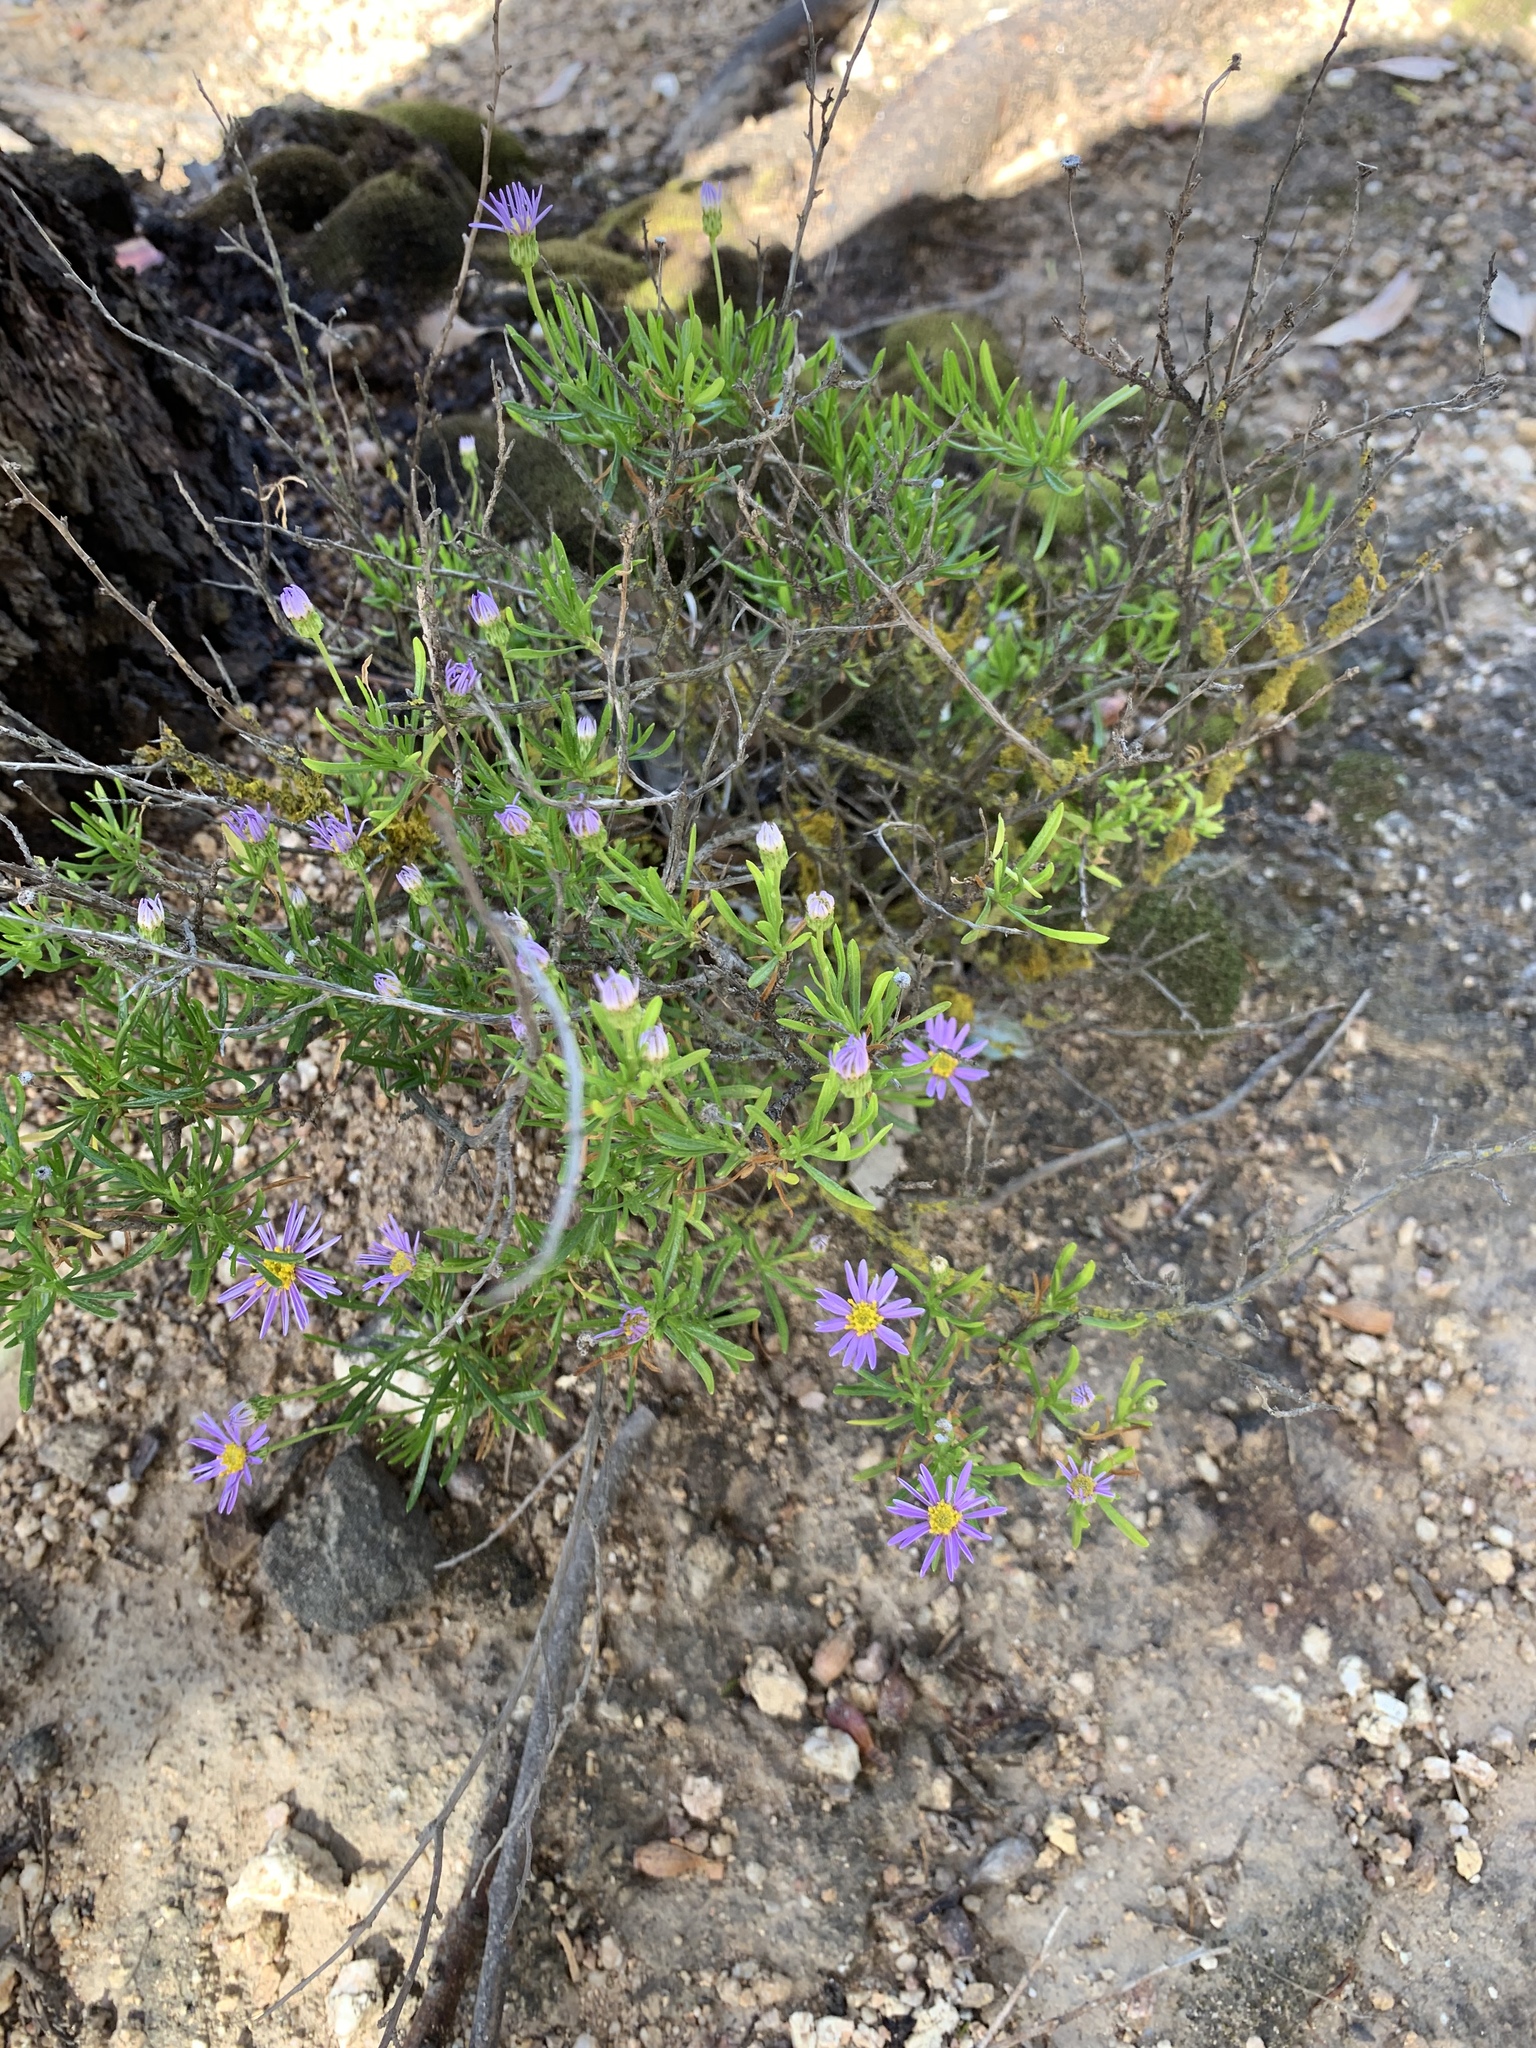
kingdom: Plantae
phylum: Tracheophyta
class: Magnoliopsida
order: Asterales
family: Asteraceae
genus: Felicia
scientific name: Felicia fruticosa
